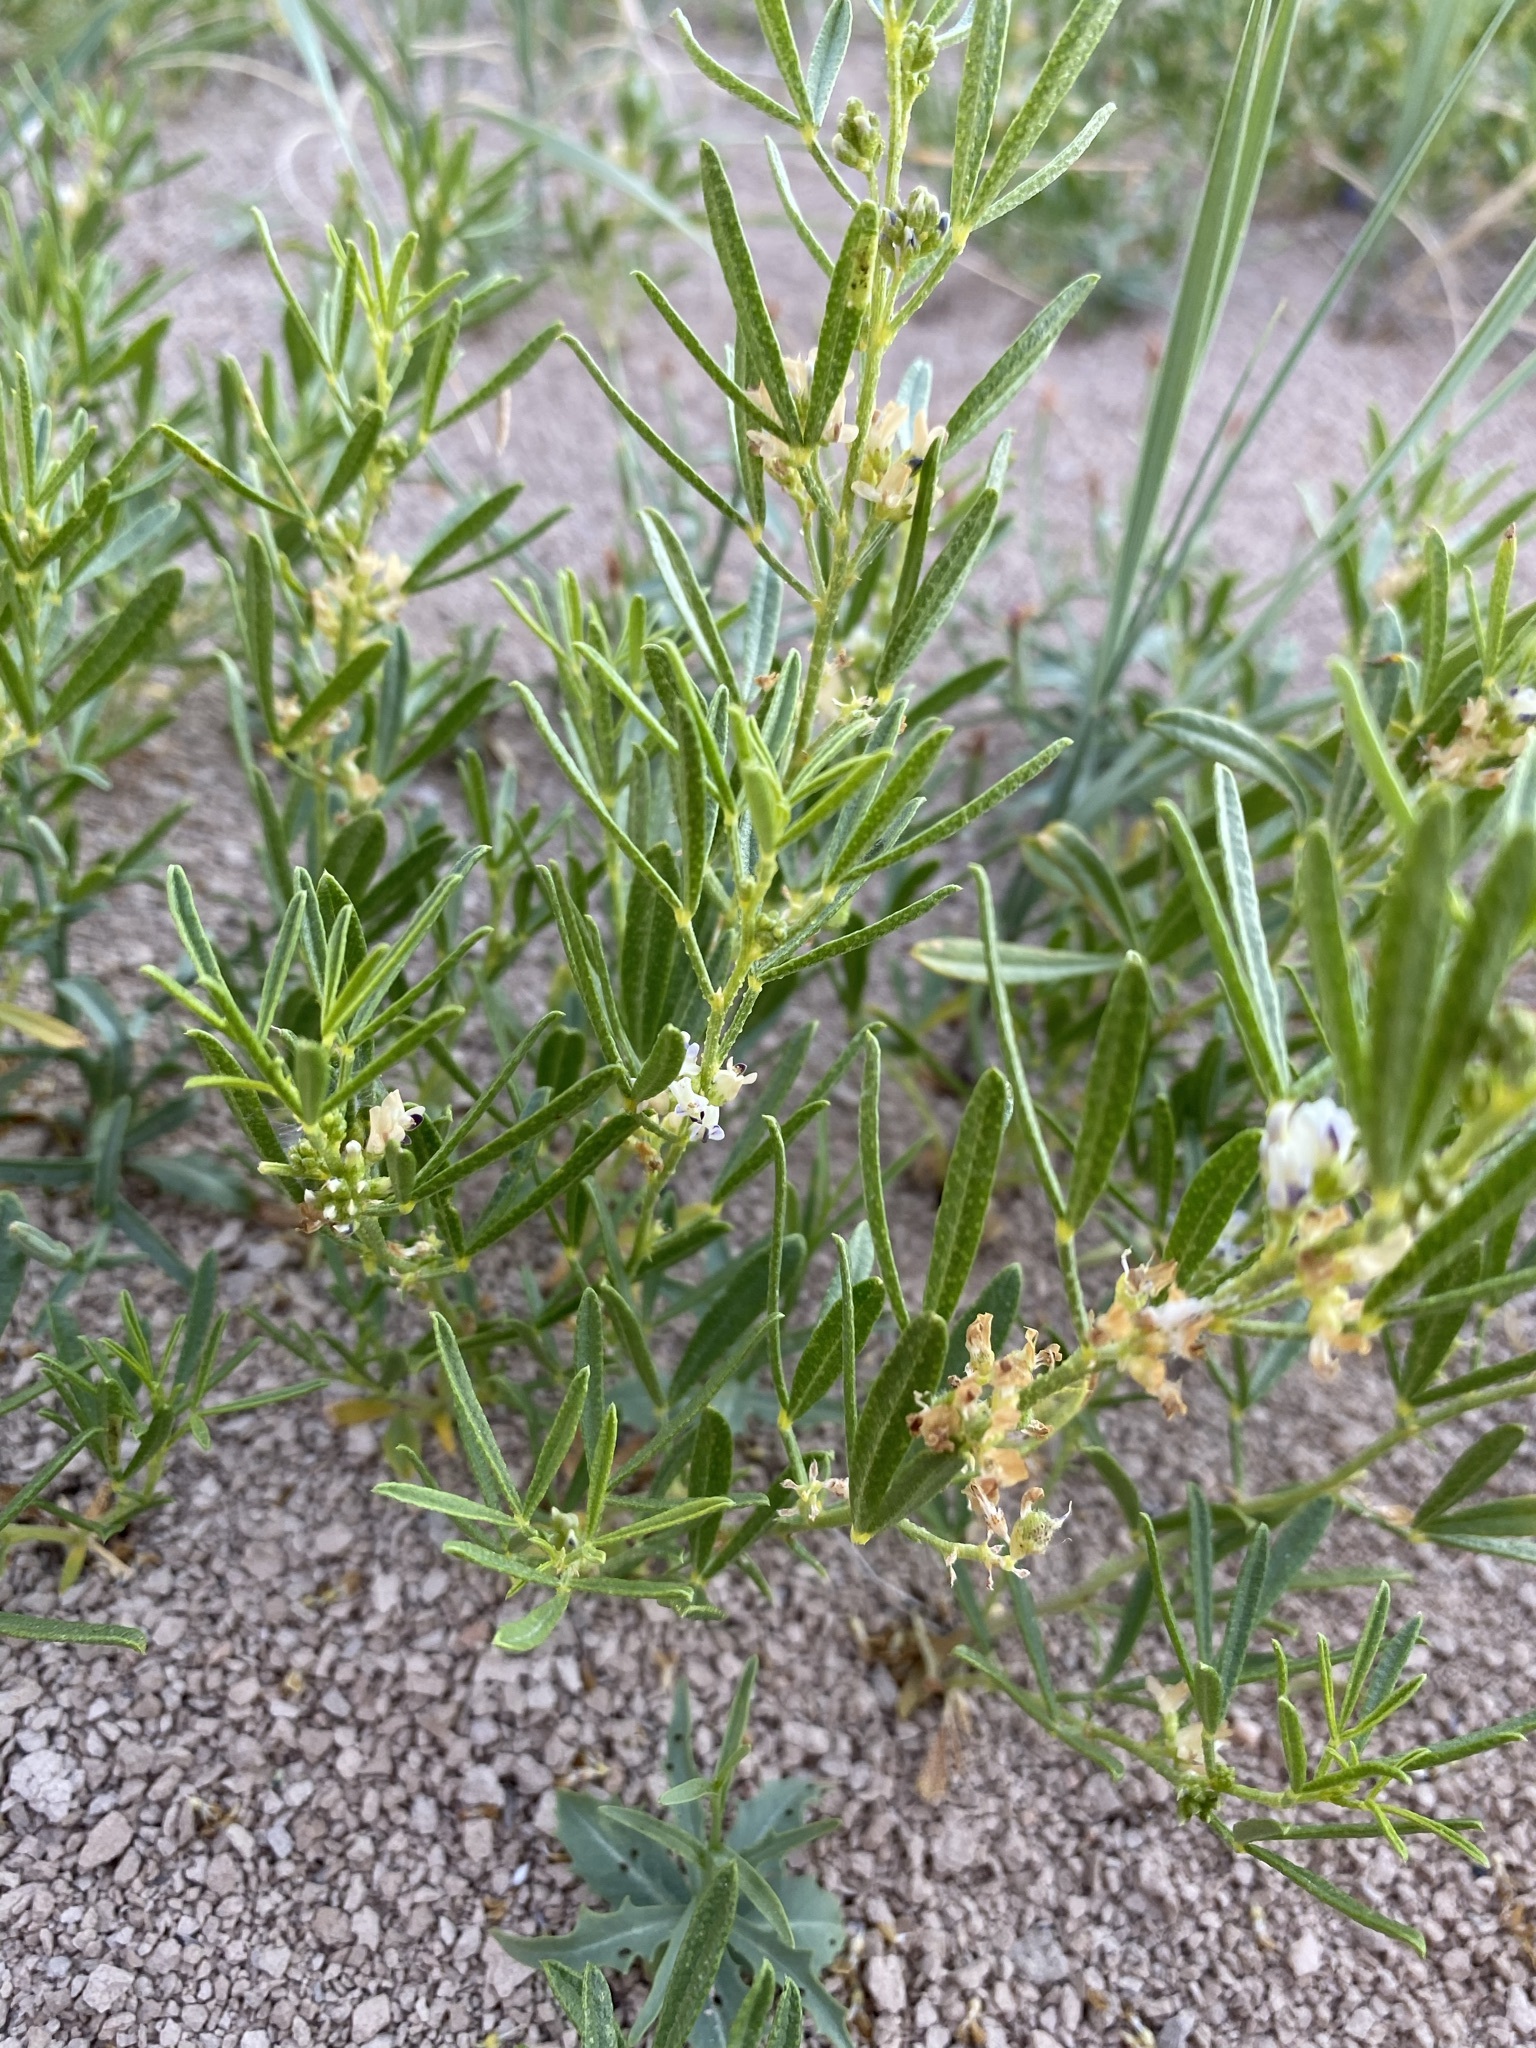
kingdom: Plantae
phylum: Tracheophyta
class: Magnoliopsida
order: Fabales
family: Fabaceae
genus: Ladeania
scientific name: Ladeania lanceolata
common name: Dune scurf-pea
